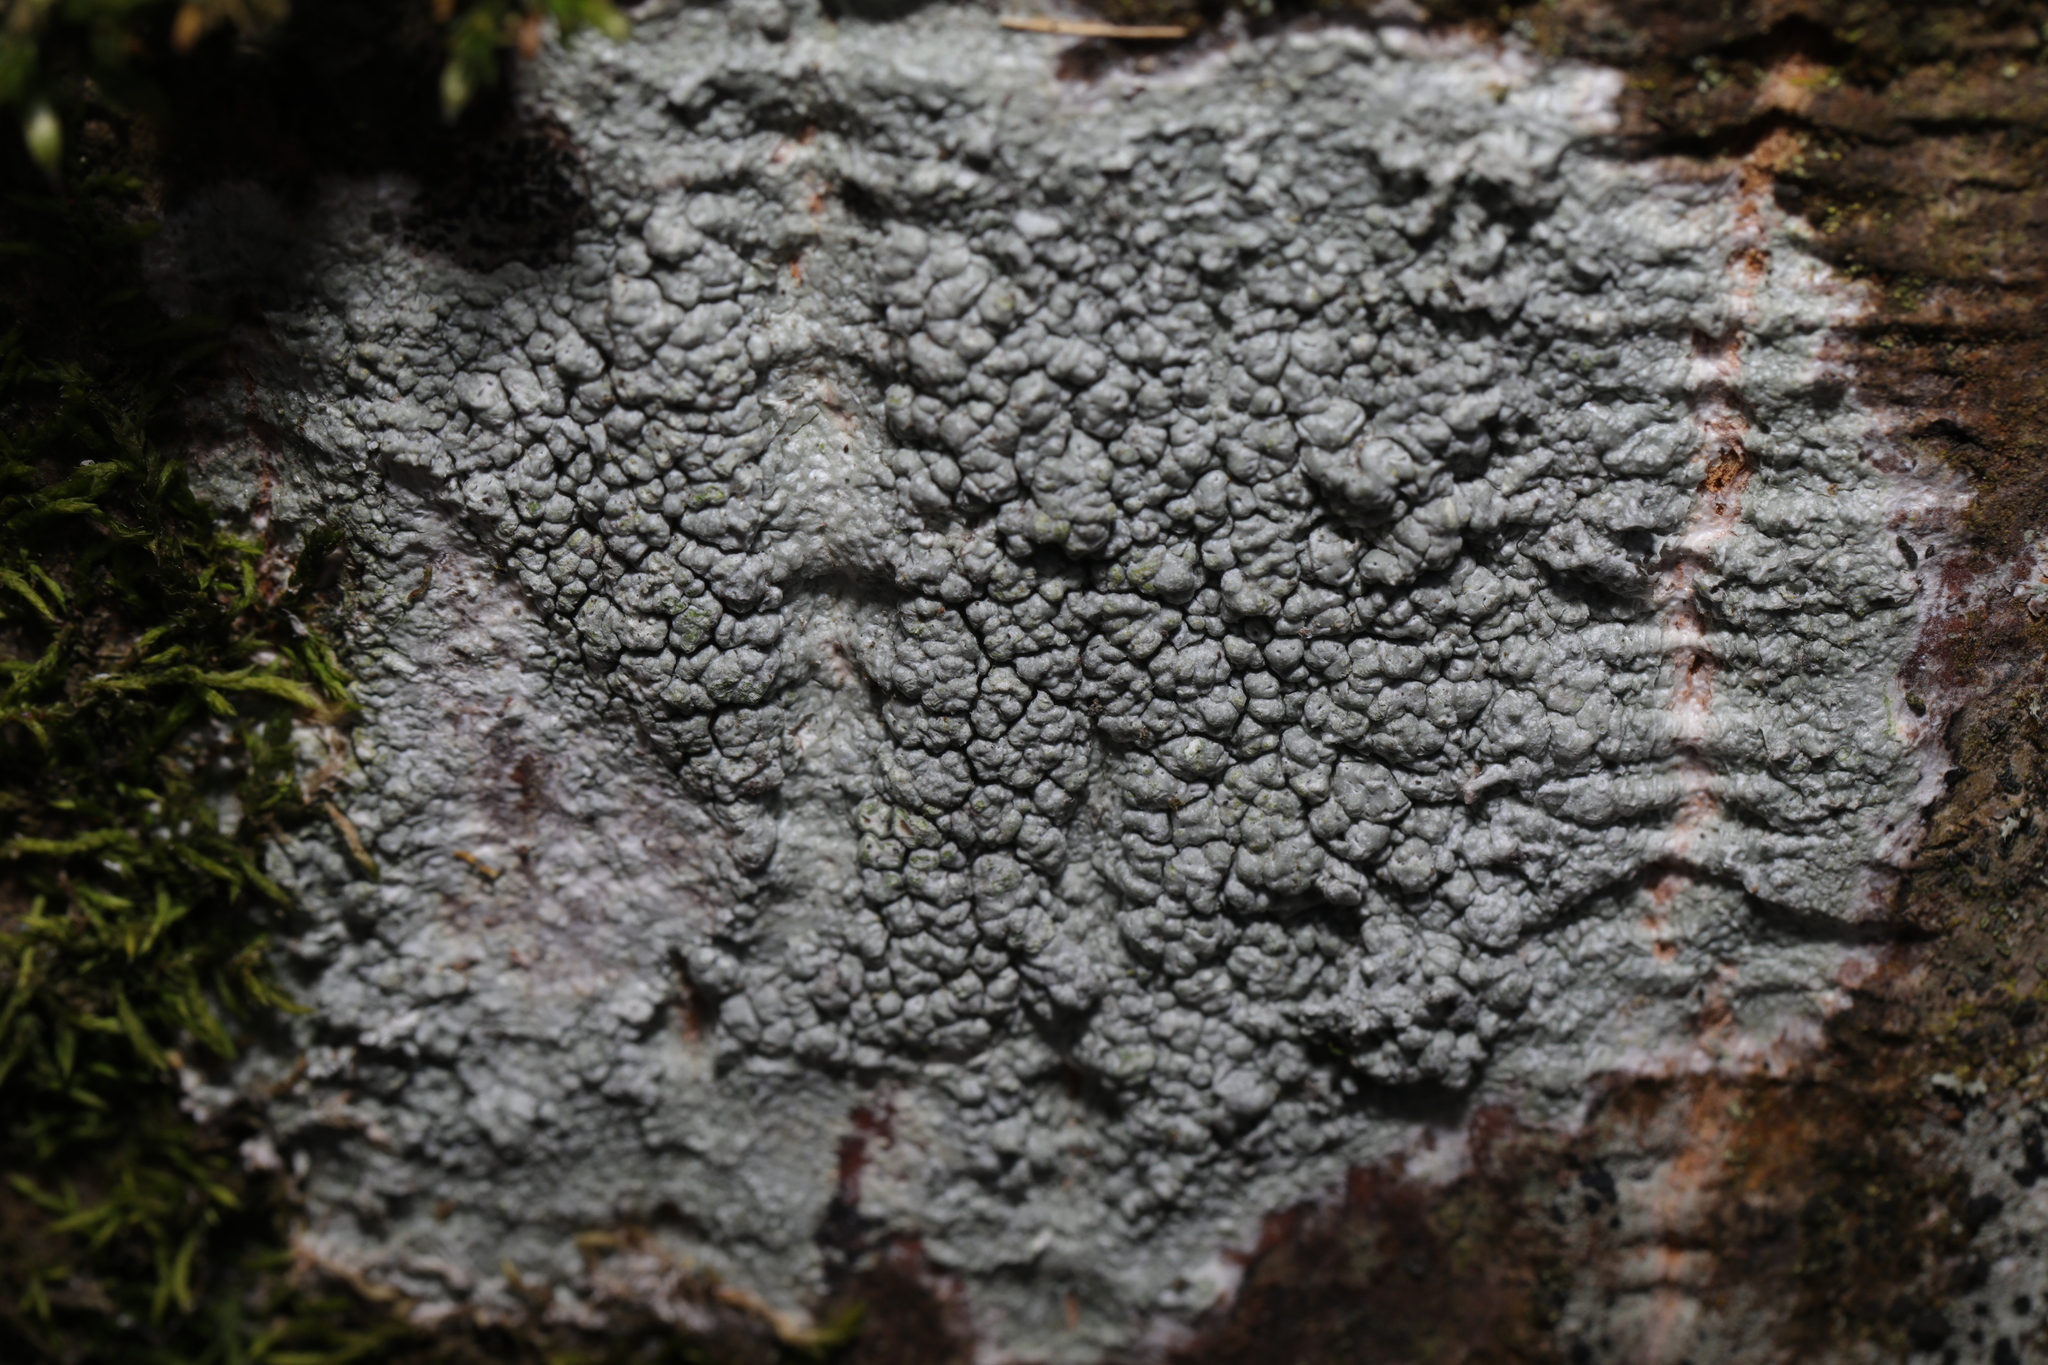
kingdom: Fungi
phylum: Ascomycota
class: Lecanoromycetes
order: Pertusariales
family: Pertusariaceae
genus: Pertusaria
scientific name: Pertusaria pertusa
